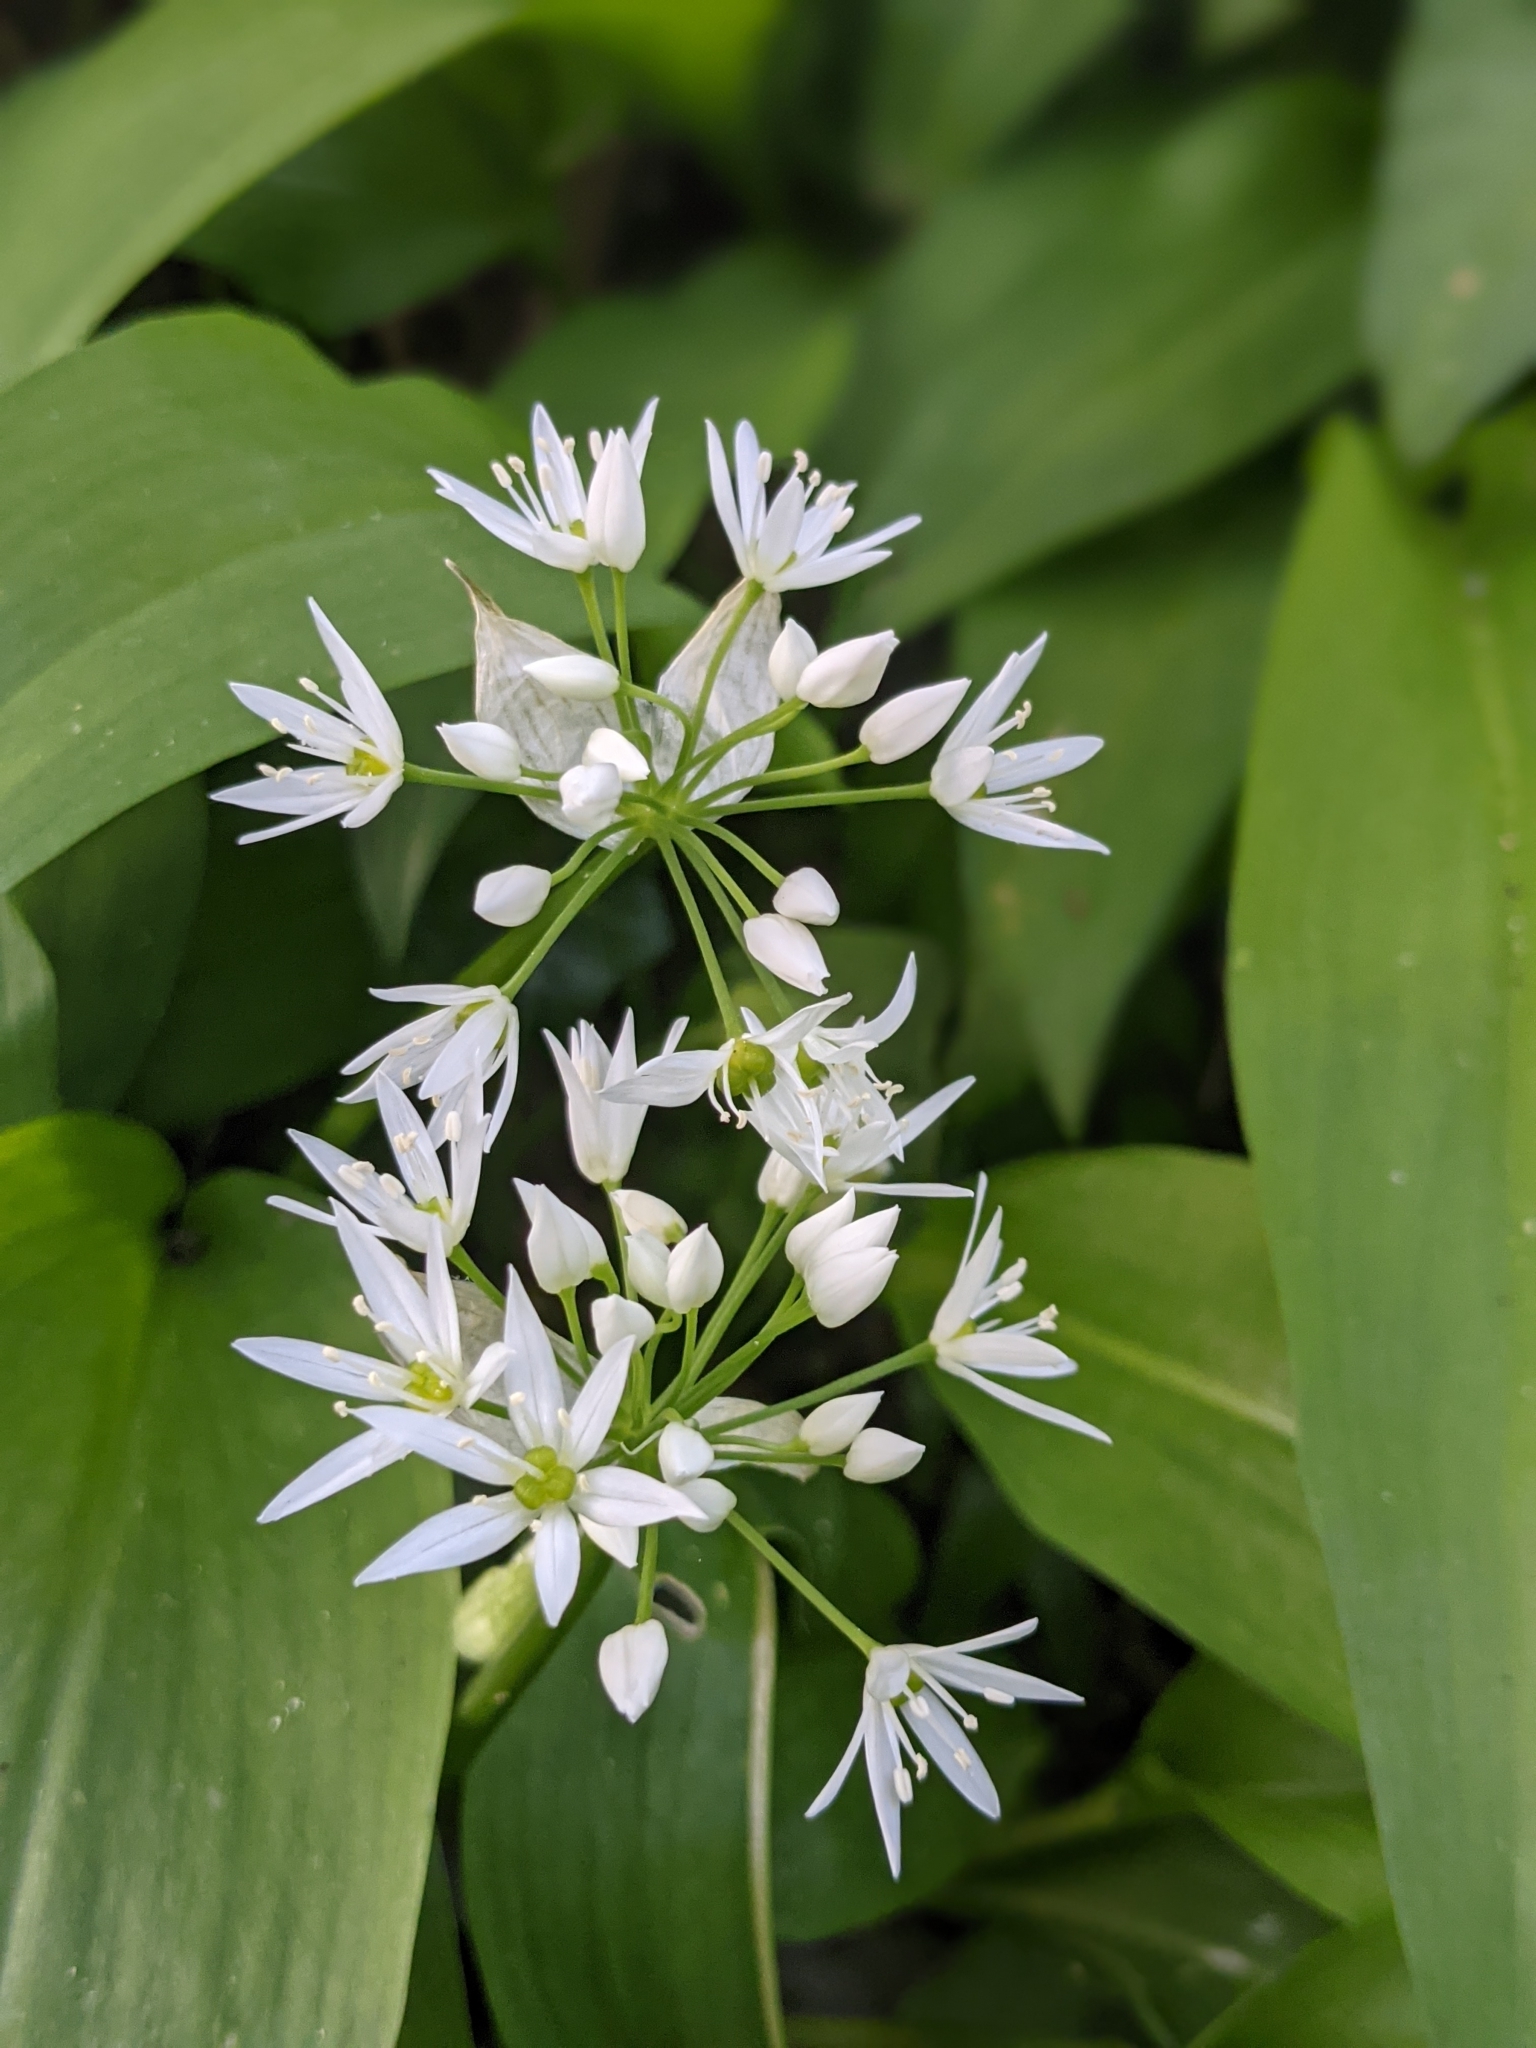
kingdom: Plantae
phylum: Tracheophyta
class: Liliopsida
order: Asparagales
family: Amaryllidaceae
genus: Allium
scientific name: Allium ursinum
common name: Ramsons
